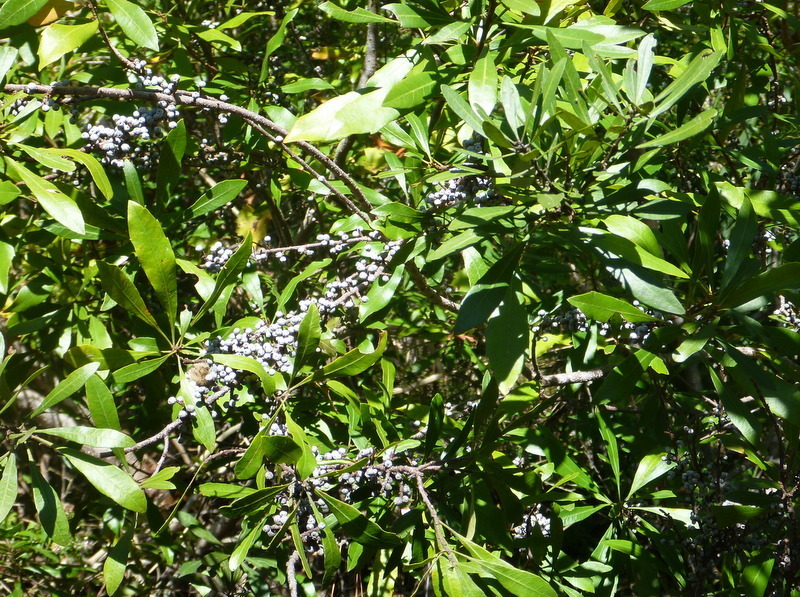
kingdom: Plantae
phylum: Tracheophyta
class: Magnoliopsida
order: Fagales
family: Myricaceae
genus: Morella
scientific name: Morella cerifera
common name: Wax myrtle
